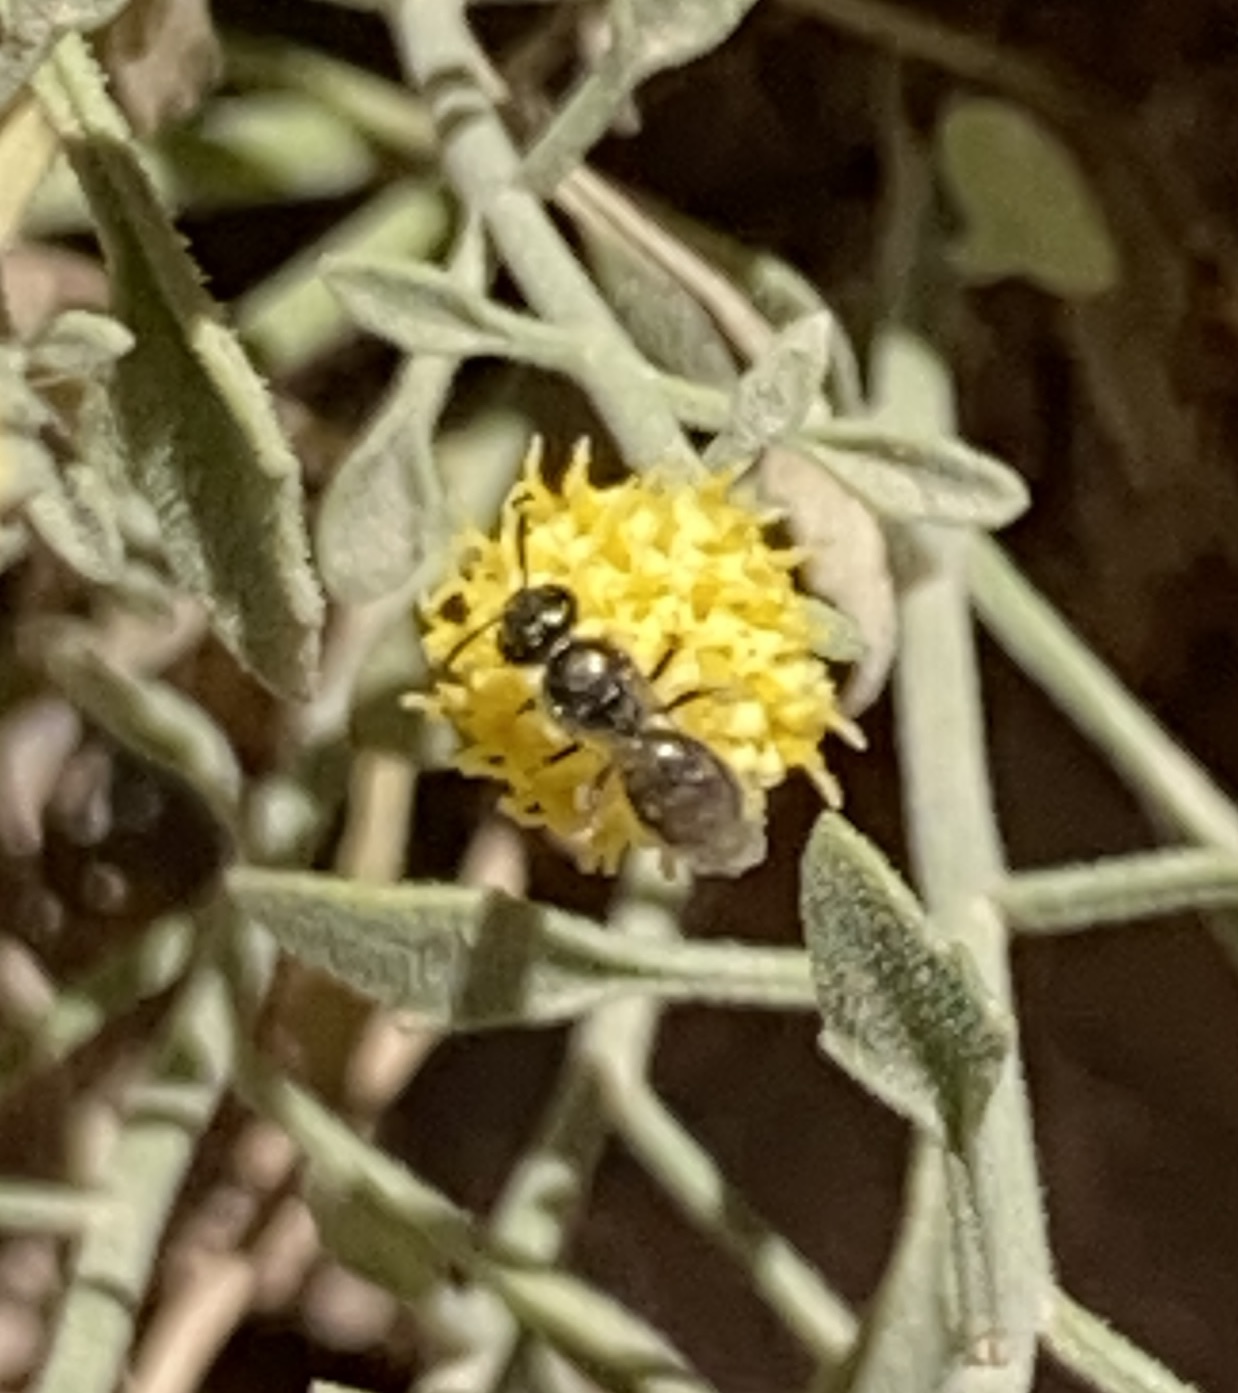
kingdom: Animalia
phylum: Arthropoda
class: Insecta
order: Hymenoptera
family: Halictidae
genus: Dialictus
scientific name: Dialictus
